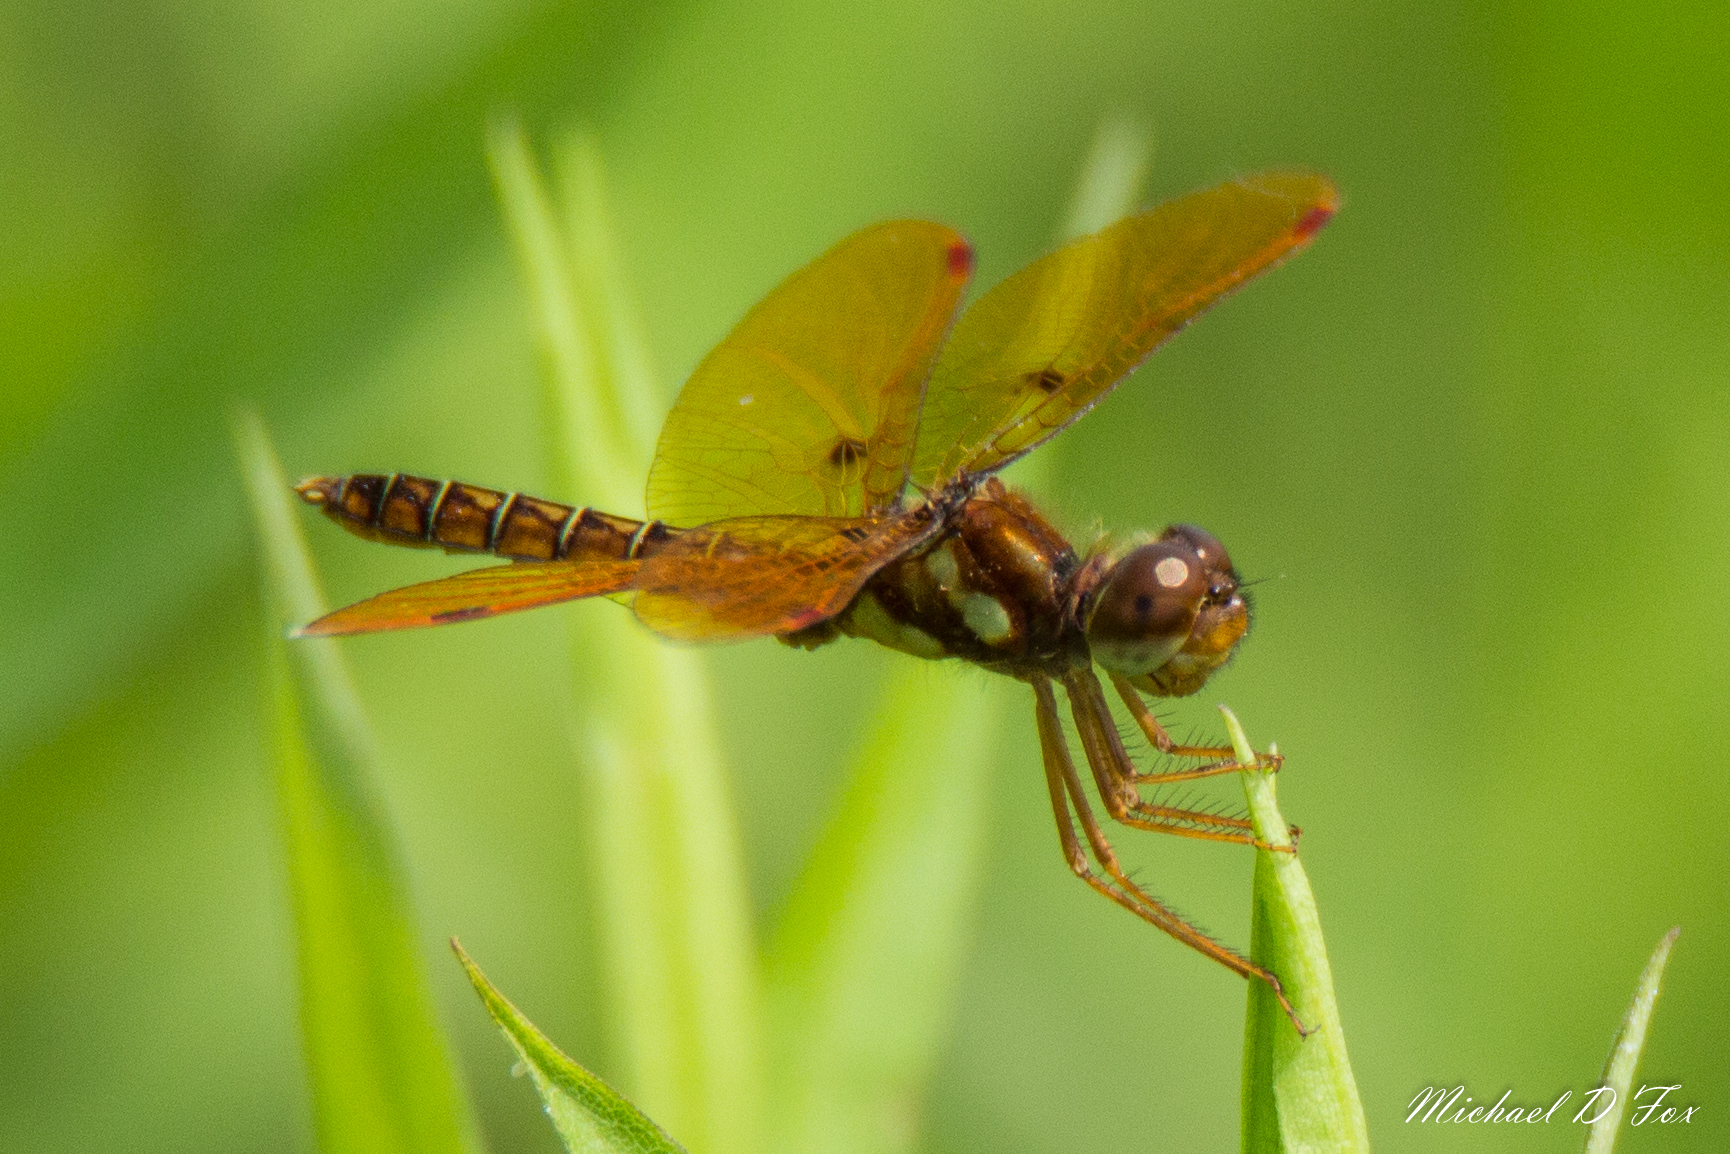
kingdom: Animalia
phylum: Arthropoda
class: Insecta
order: Odonata
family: Libellulidae
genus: Perithemis
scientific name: Perithemis tenera
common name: Eastern amberwing
